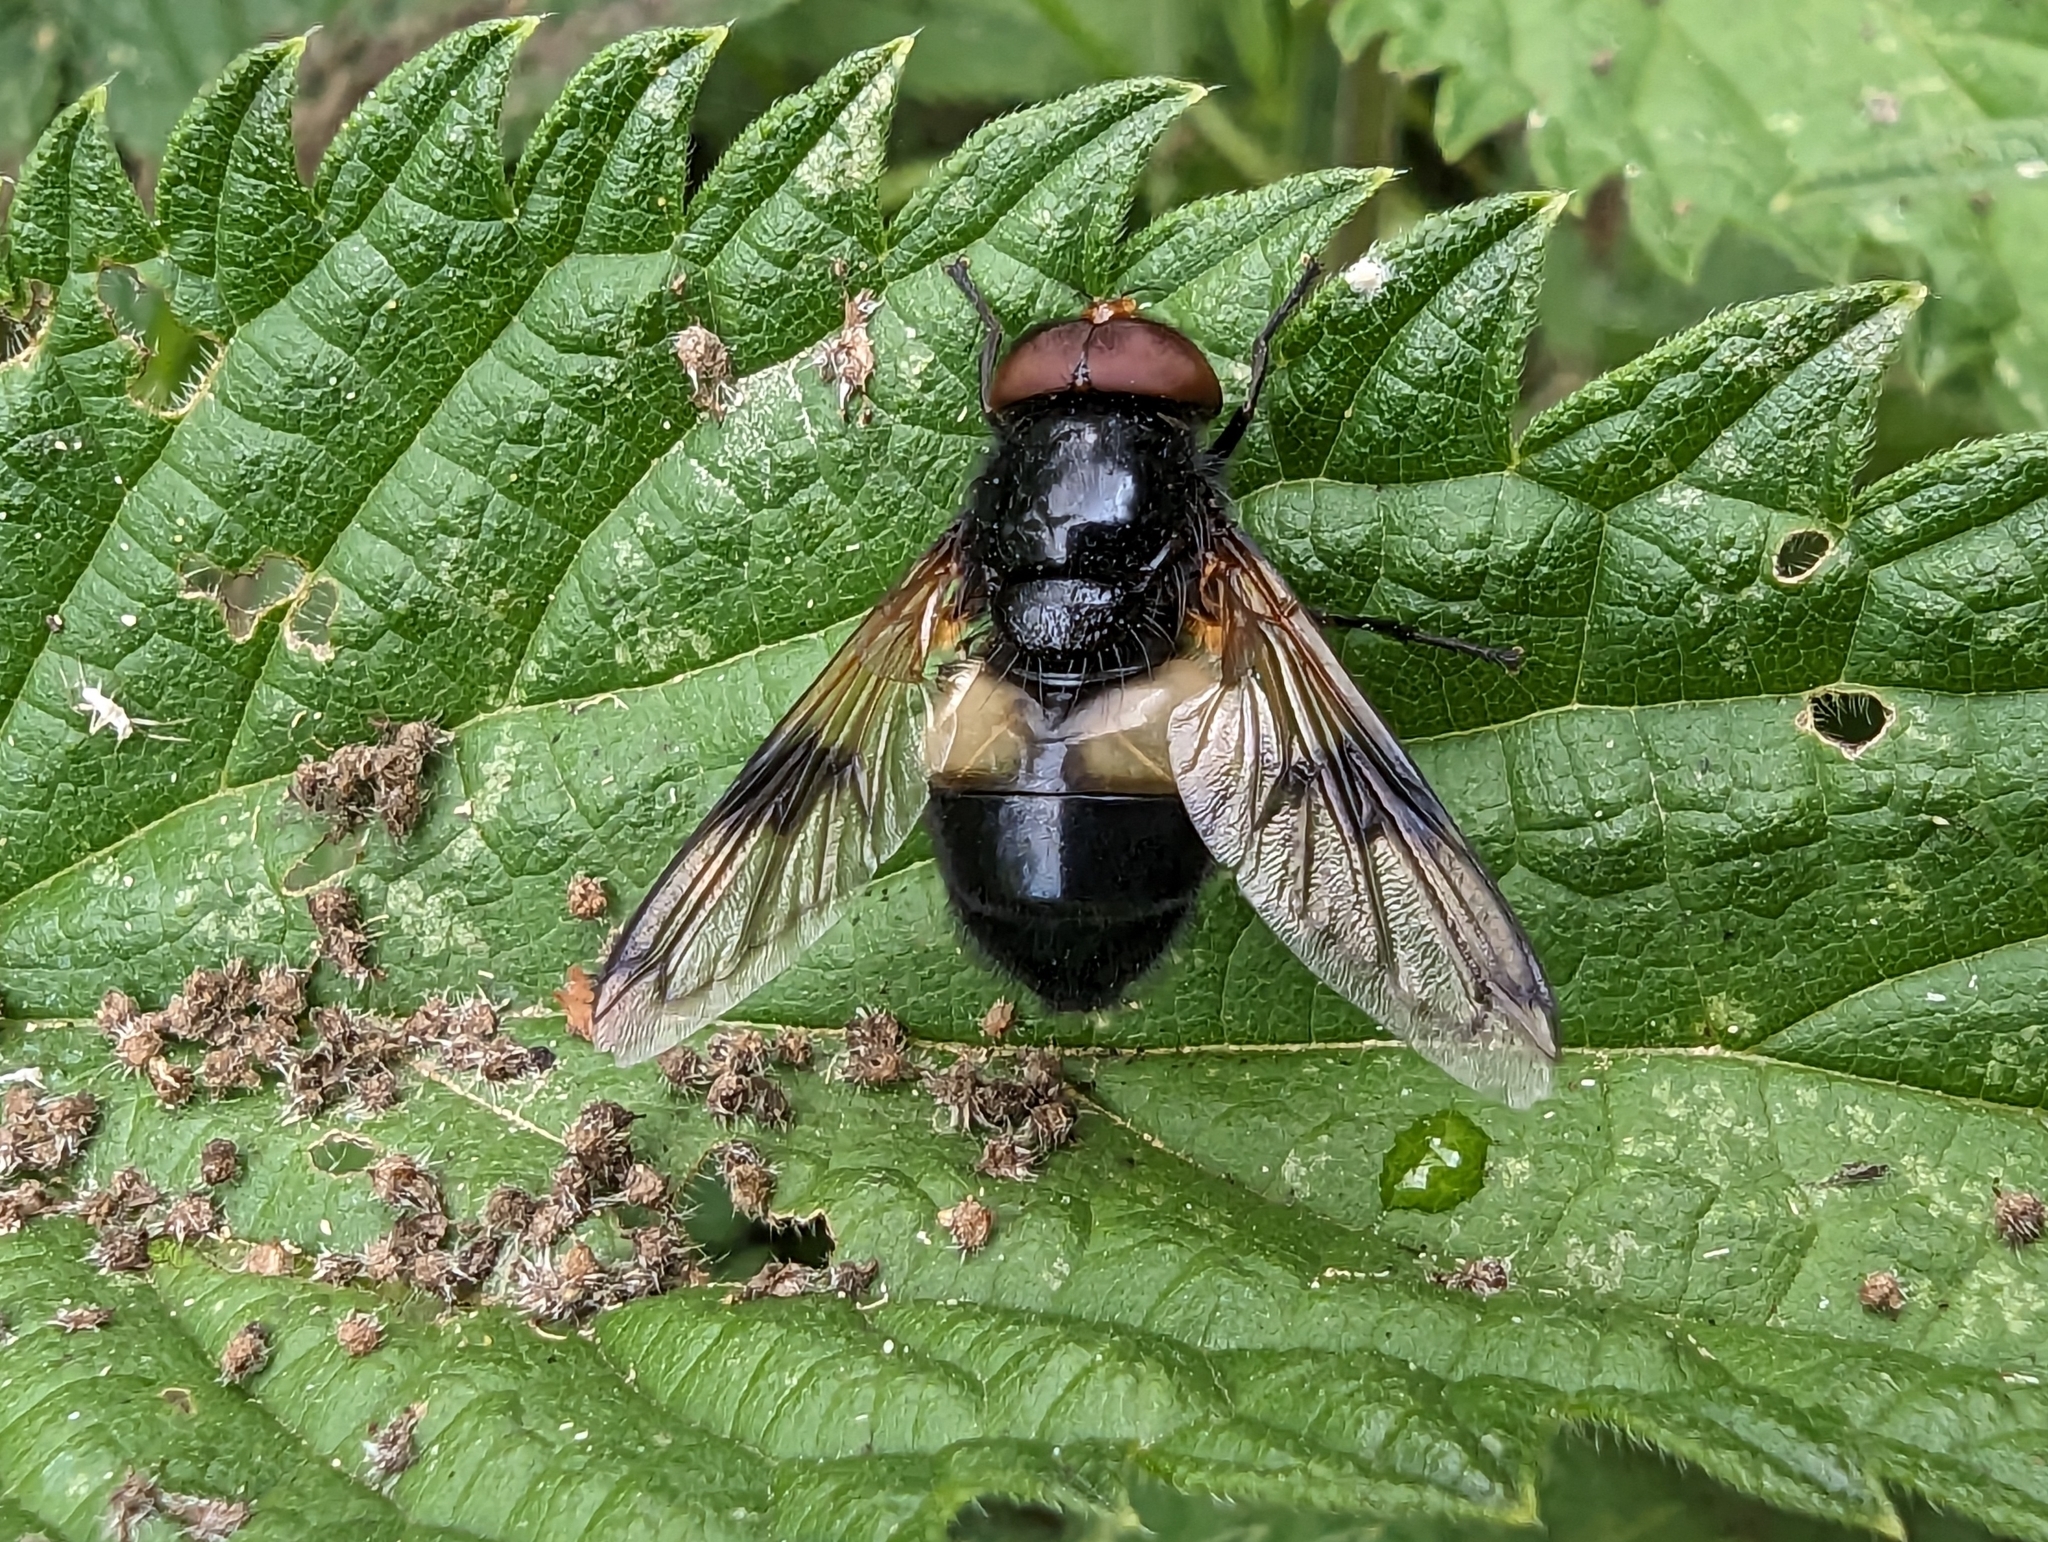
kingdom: Animalia
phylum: Arthropoda
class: Insecta
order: Diptera
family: Syrphidae
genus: Volucella
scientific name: Volucella pellucens
